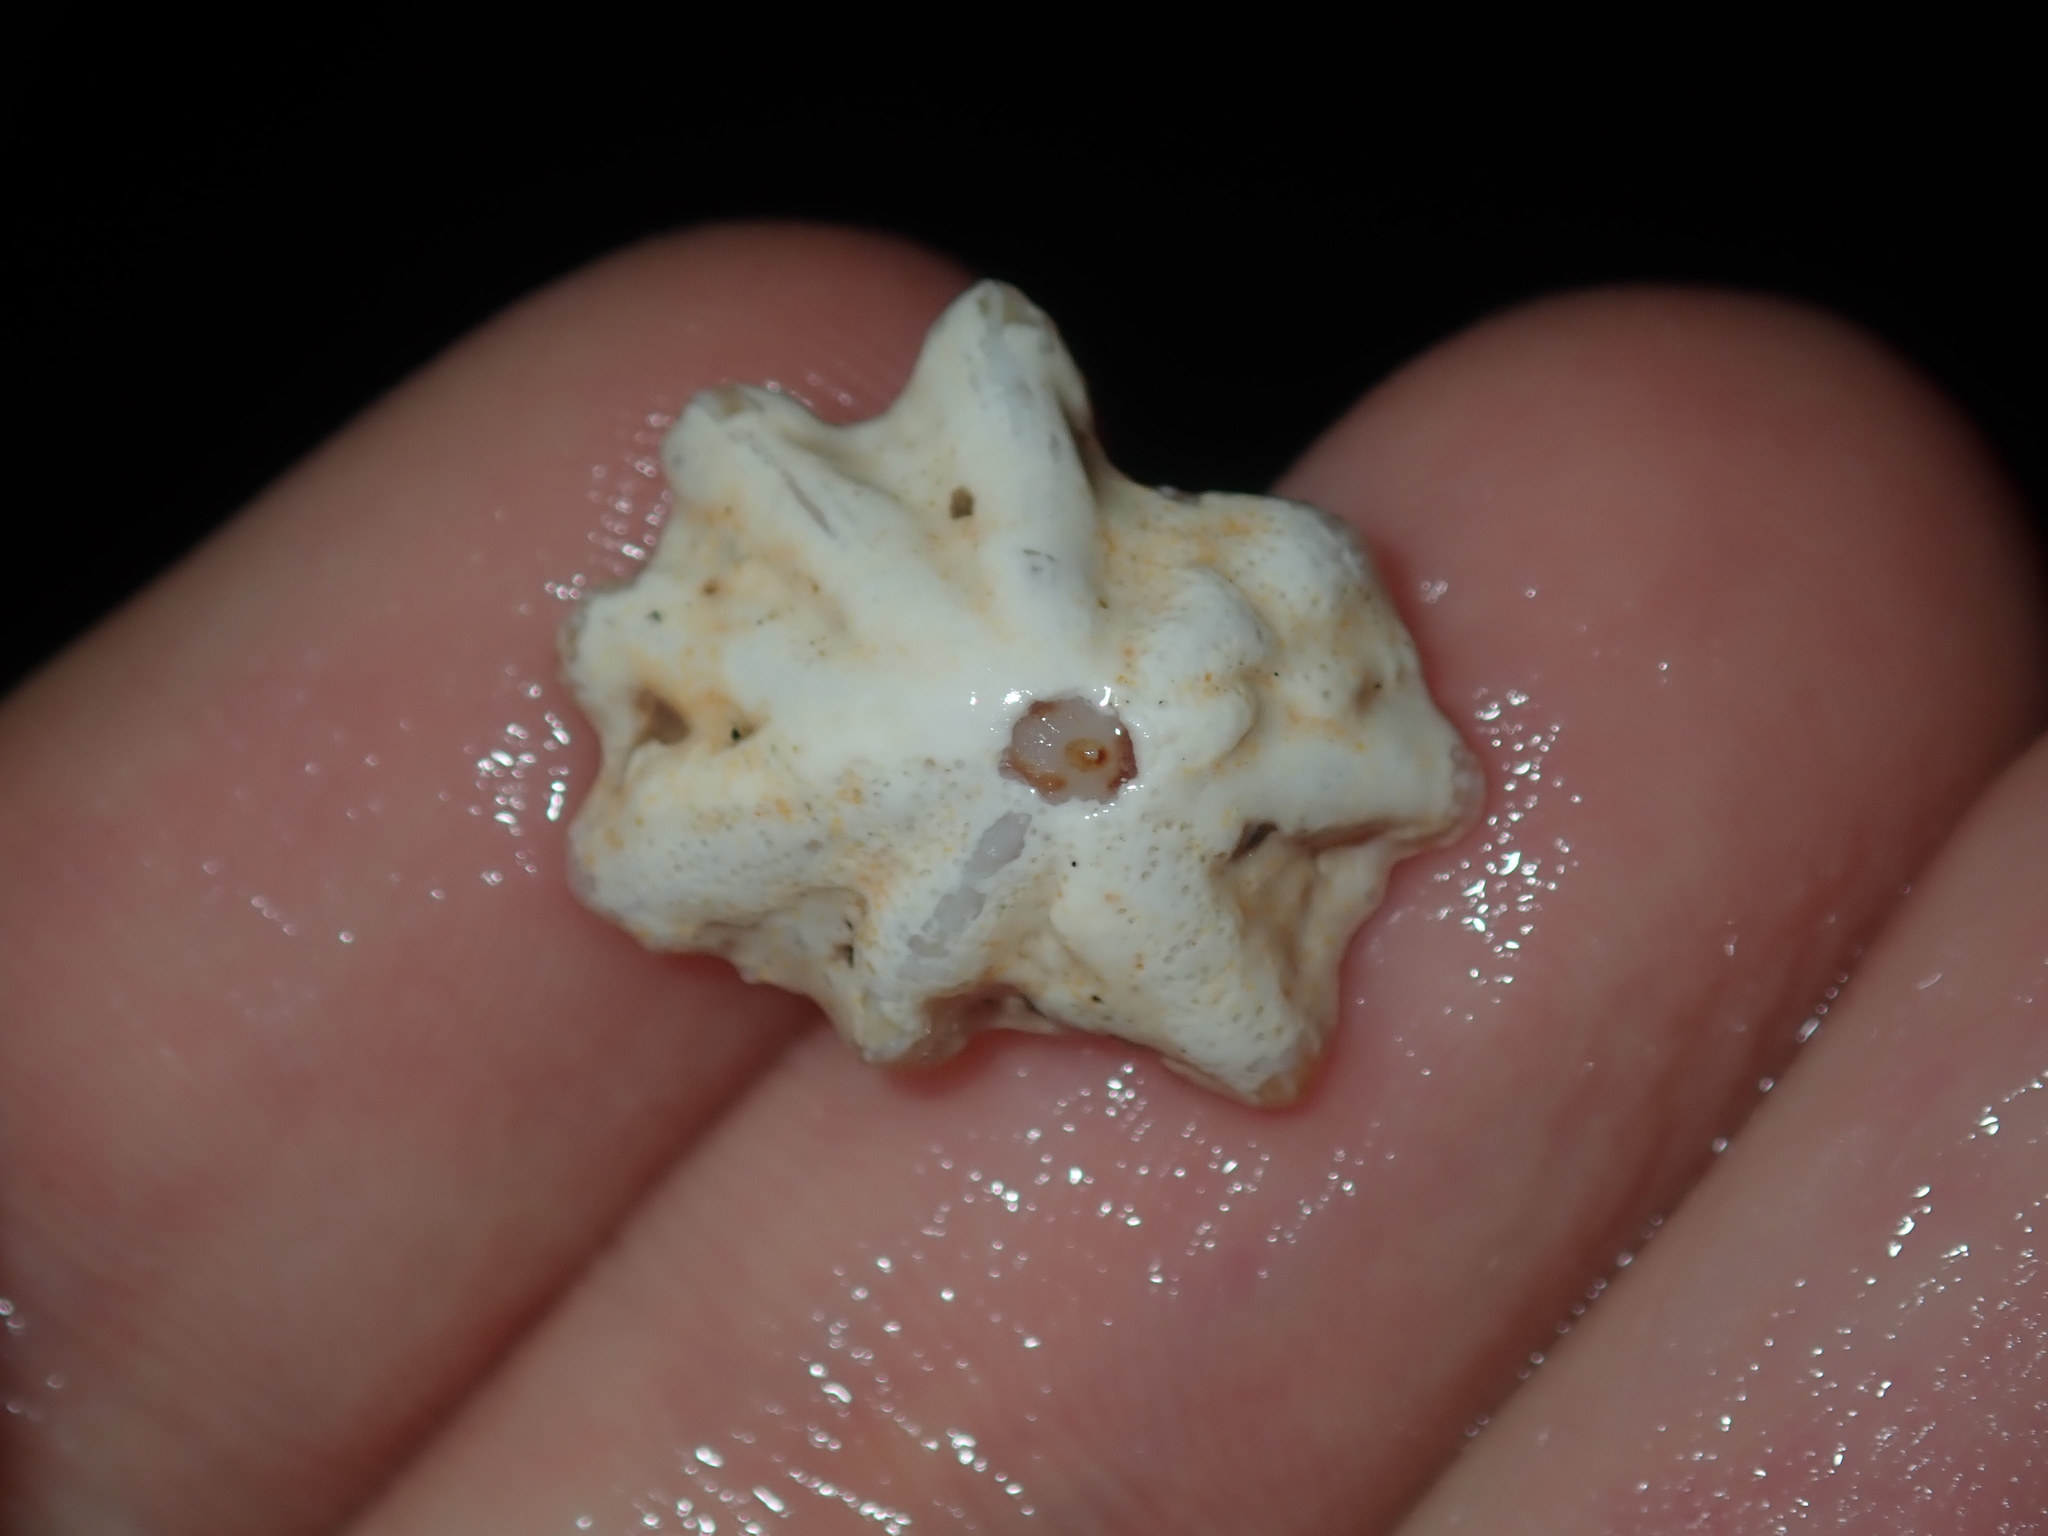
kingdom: Animalia
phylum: Mollusca
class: Gastropoda
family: Patellidae
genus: Scutellastra
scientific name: Scutellastra chapmani
